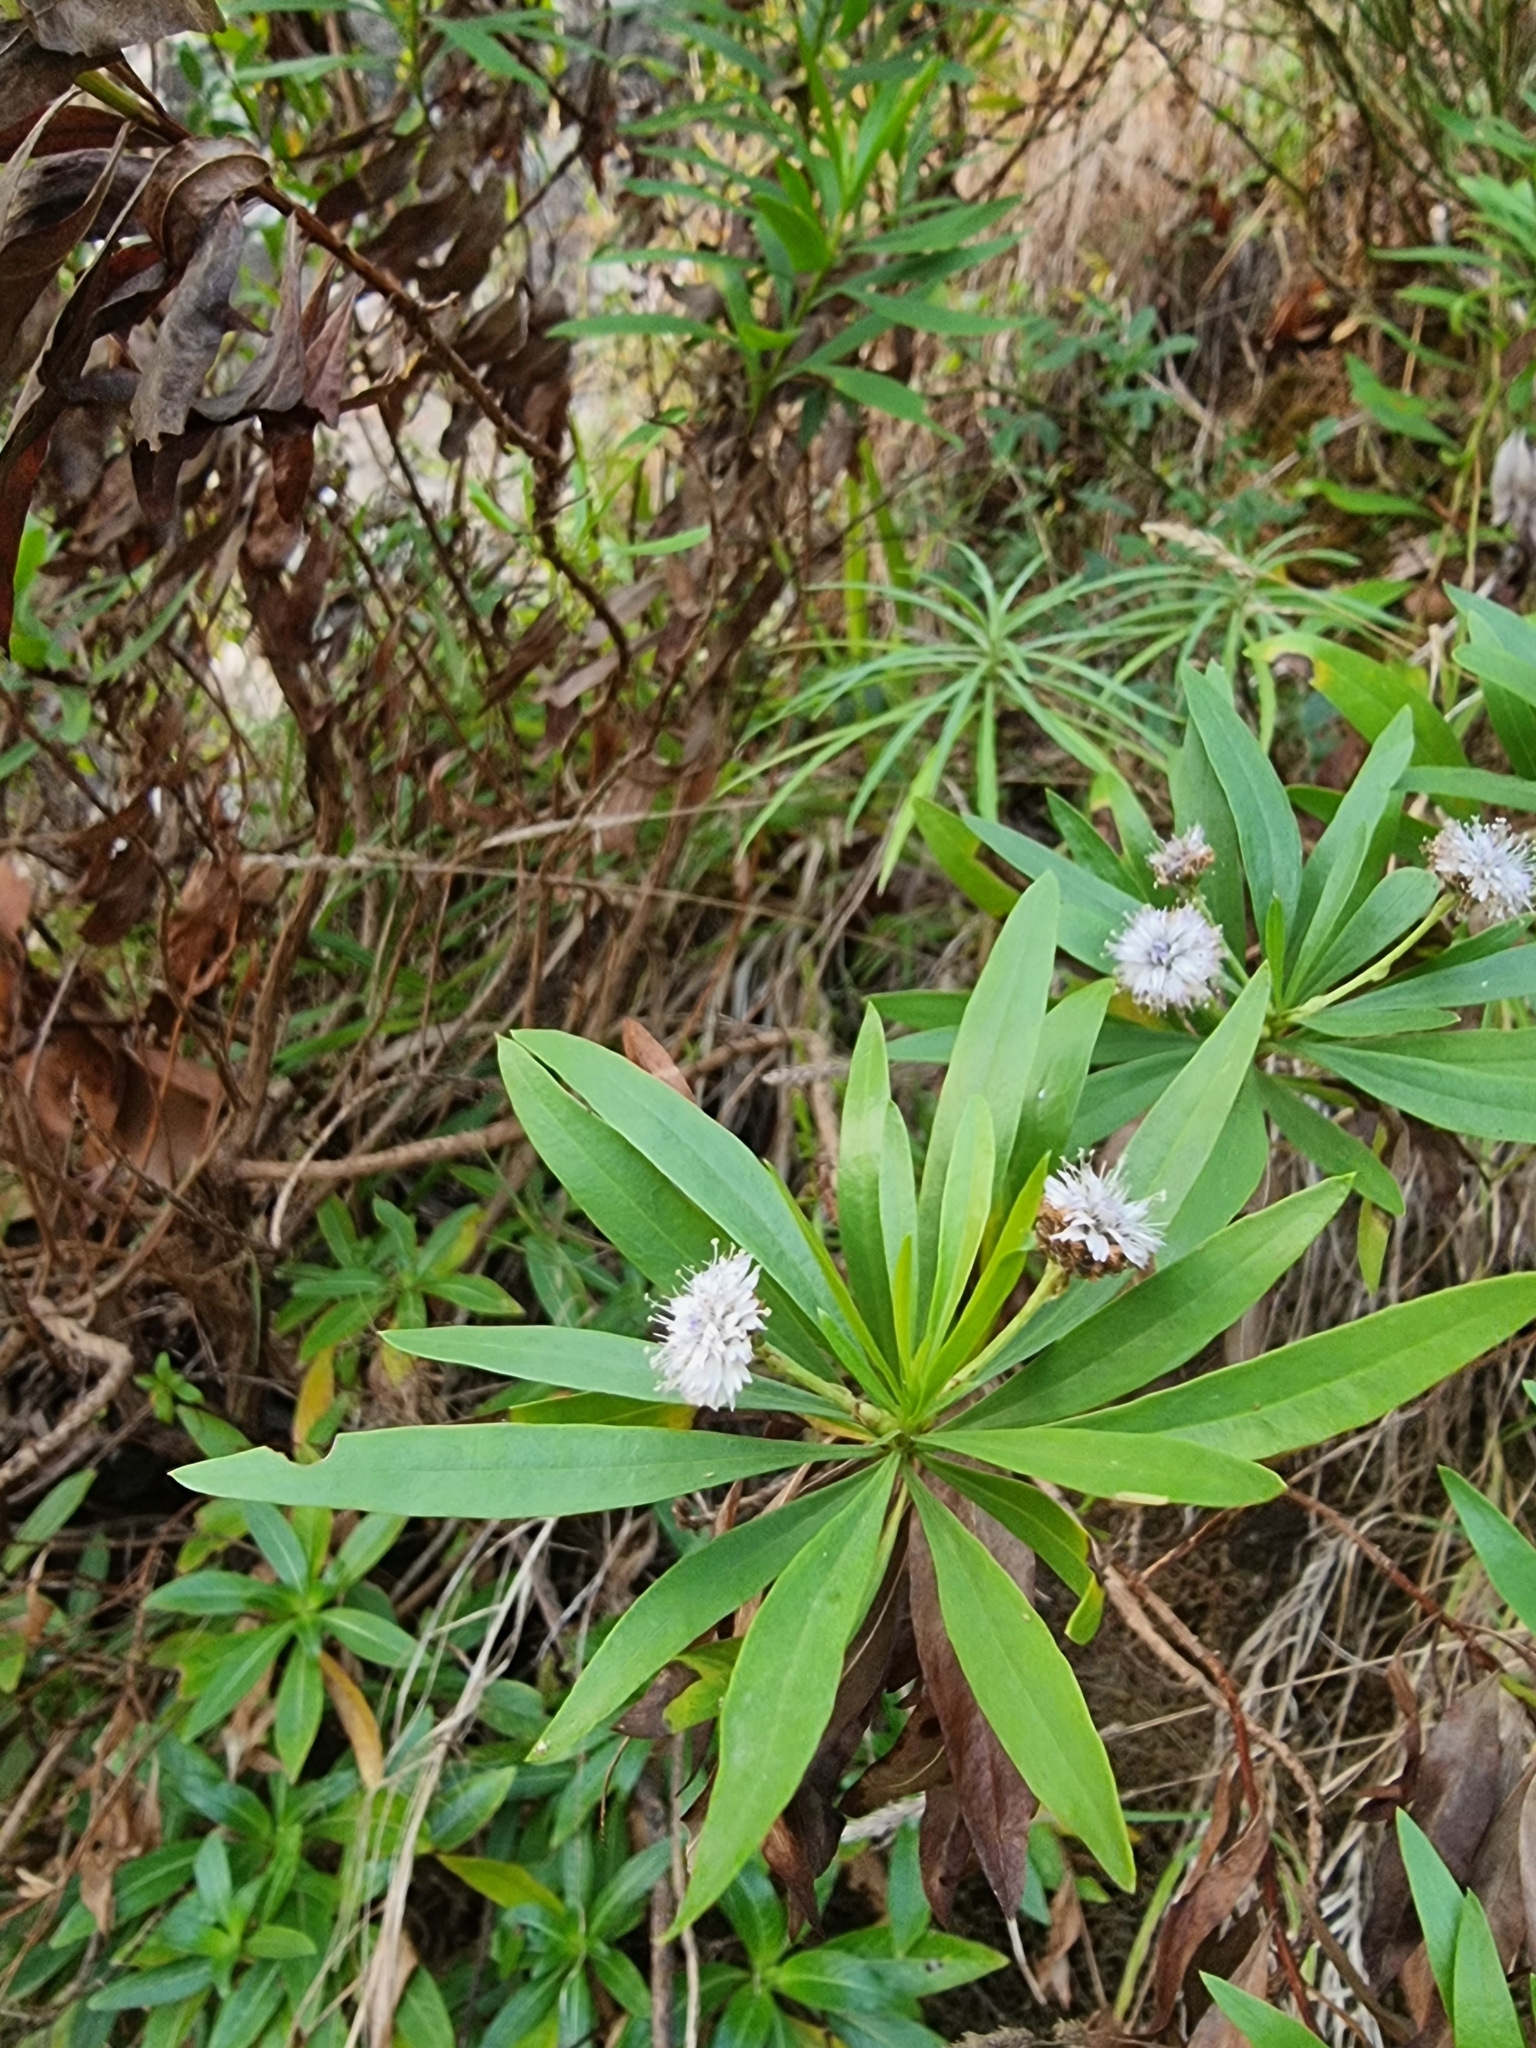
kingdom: Plantae
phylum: Tracheophyta
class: Magnoliopsida
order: Lamiales
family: Plantaginaceae
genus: Globularia
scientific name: Globularia salicina
